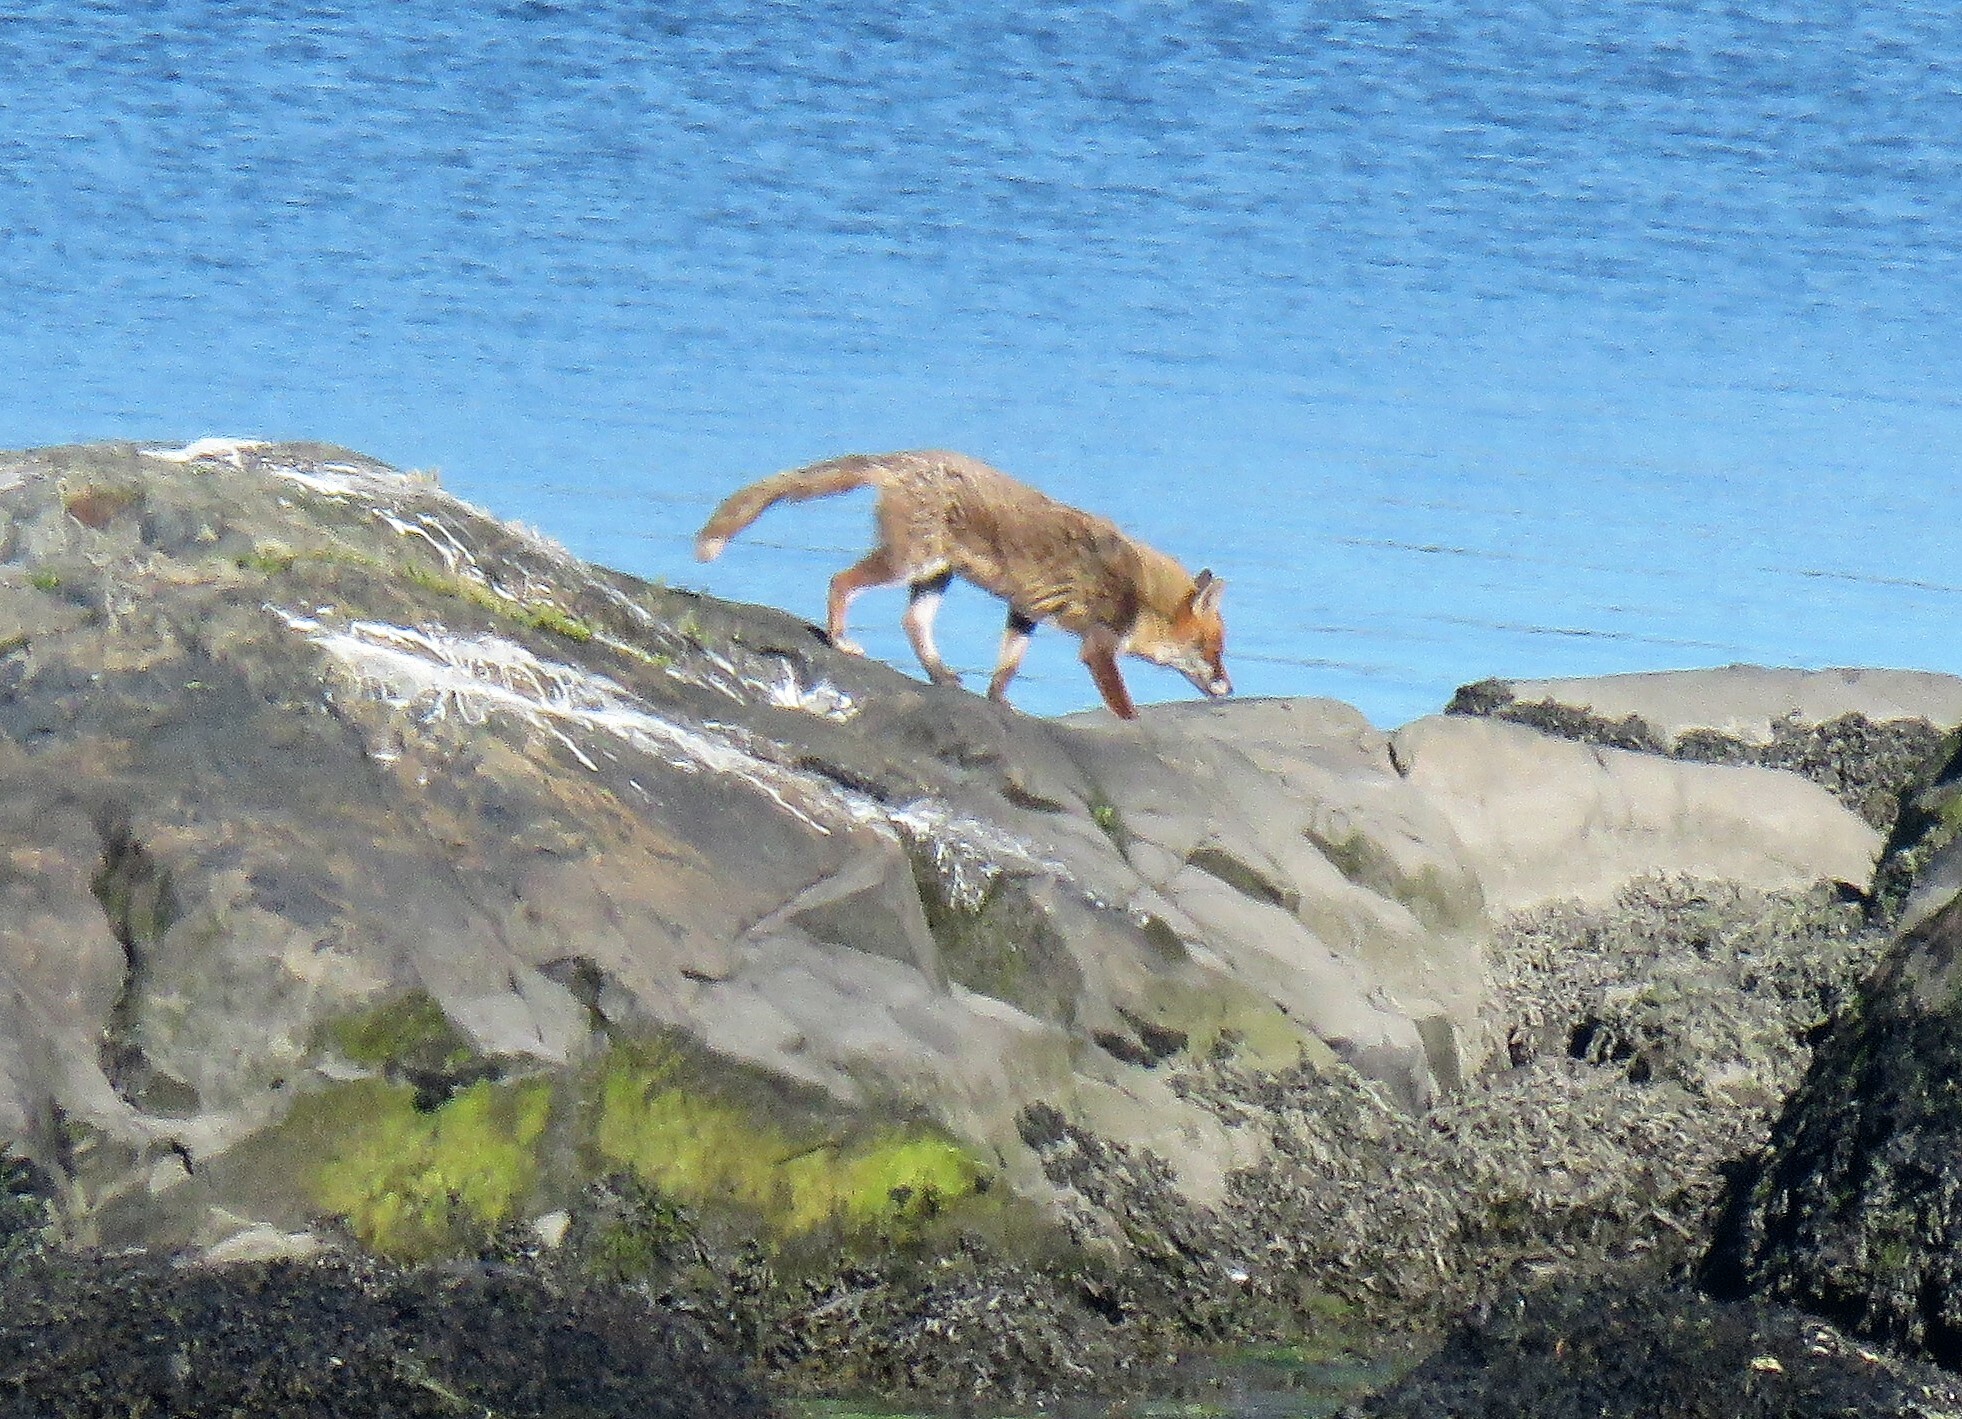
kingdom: Animalia
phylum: Chordata
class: Mammalia
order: Carnivora
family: Canidae
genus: Vulpes
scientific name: Vulpes vulpes
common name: Red fox
